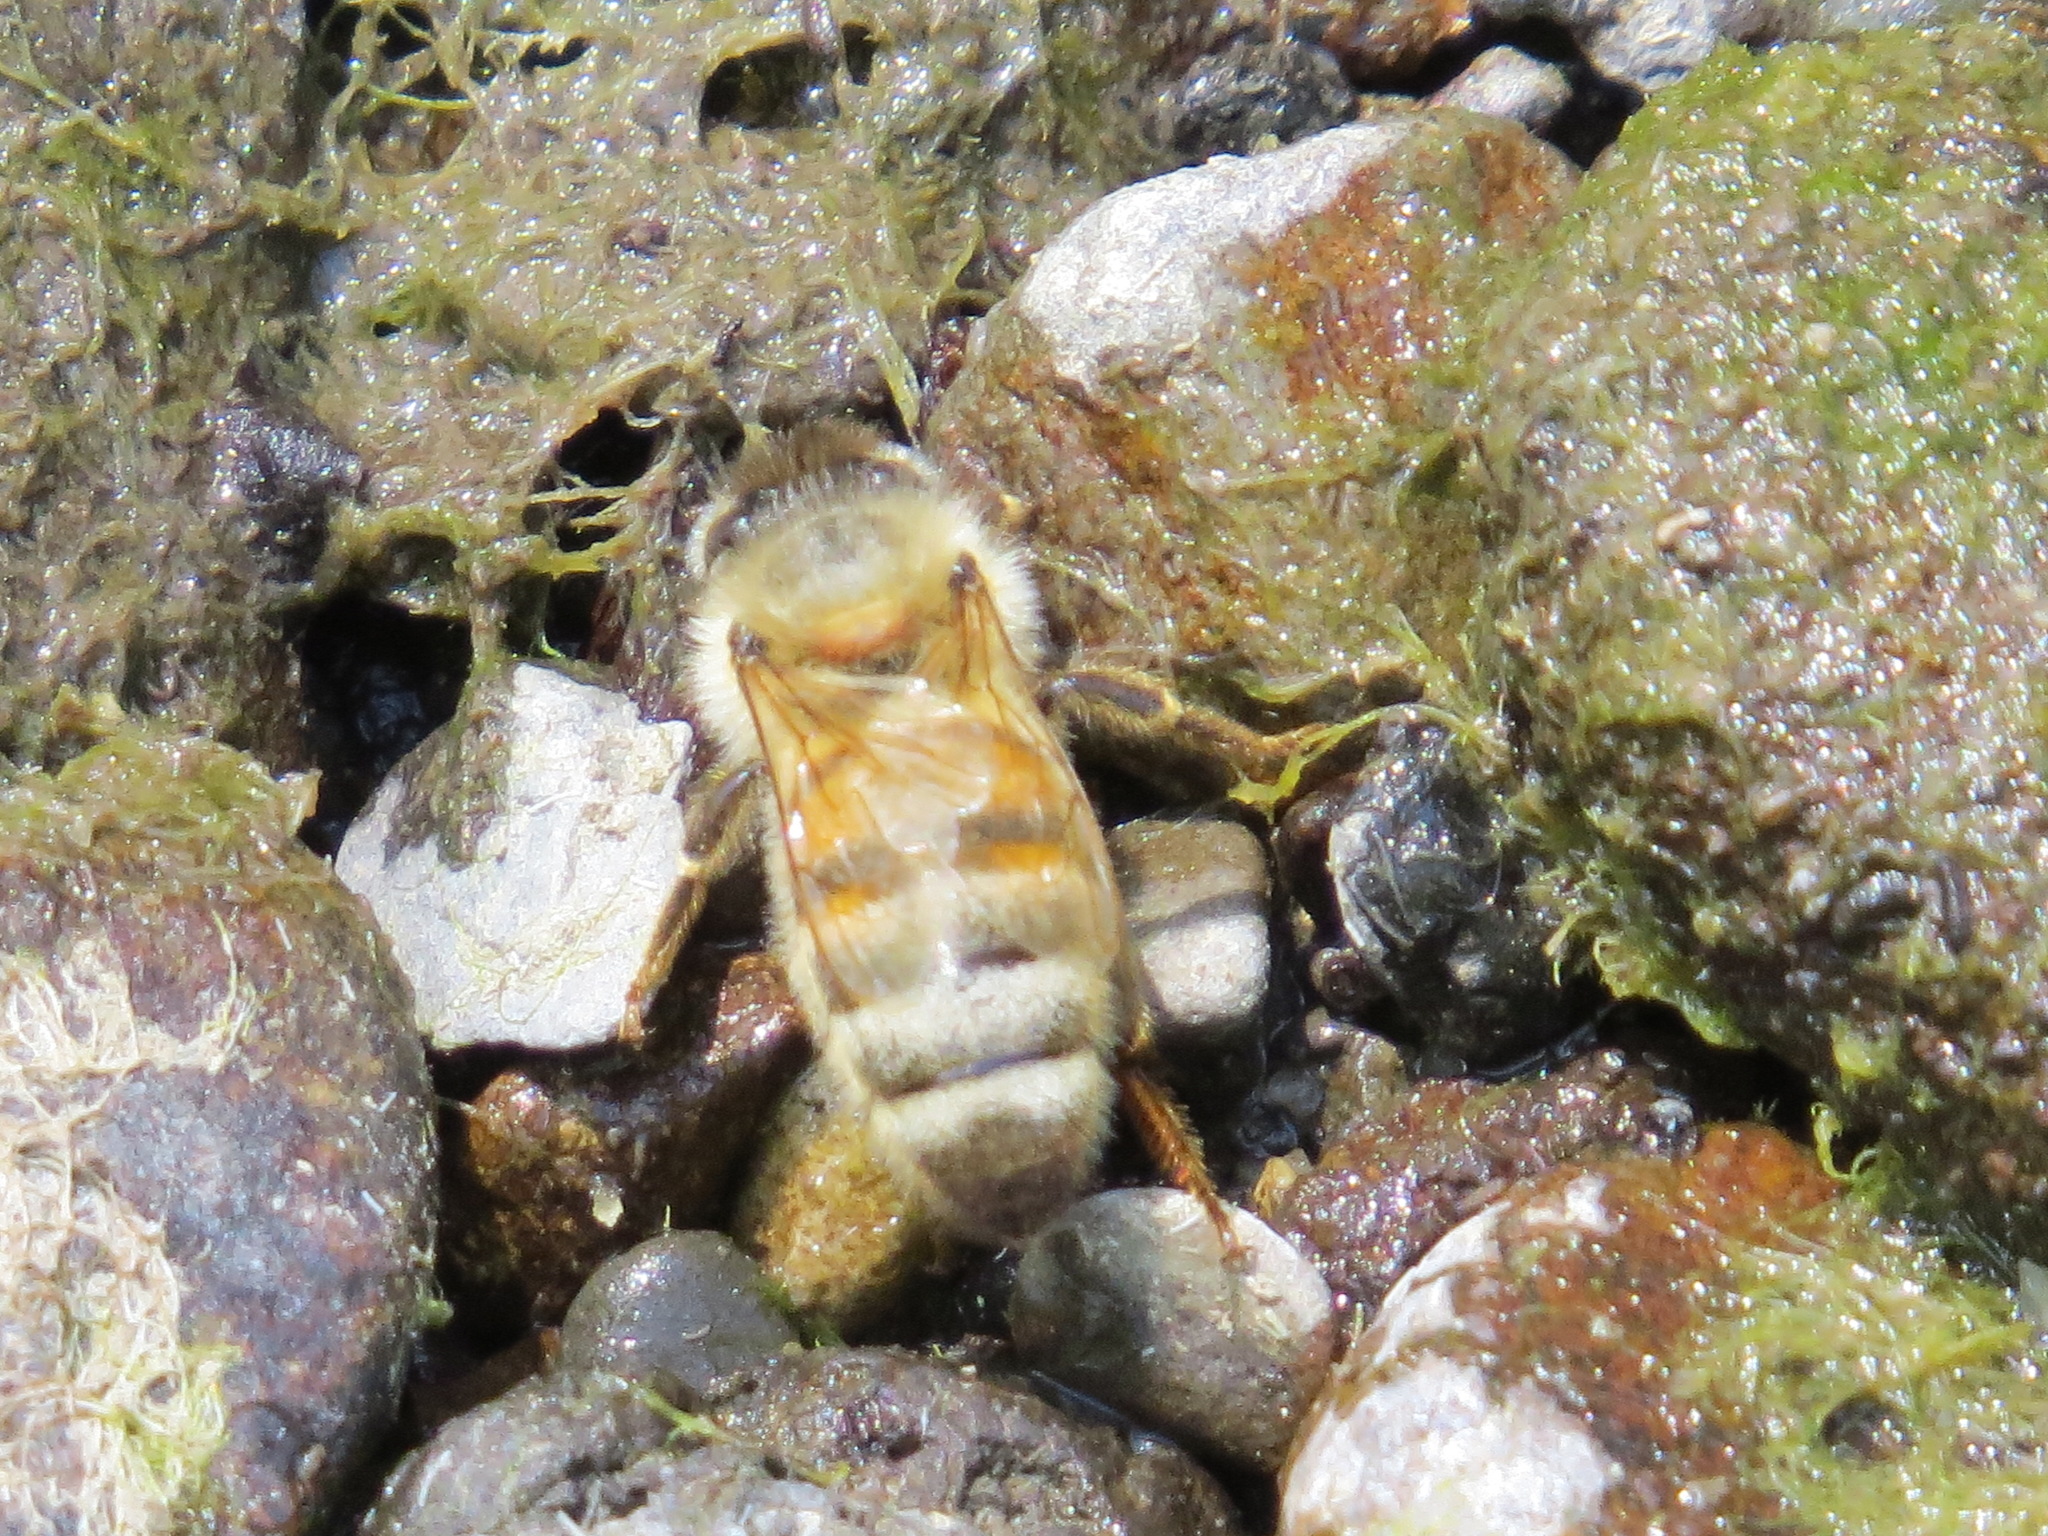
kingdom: Animalia
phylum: Arthropoda
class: Insecta
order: Hymenoptera
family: Apidae
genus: Apis
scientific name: Apis mellifera
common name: Honey bee
